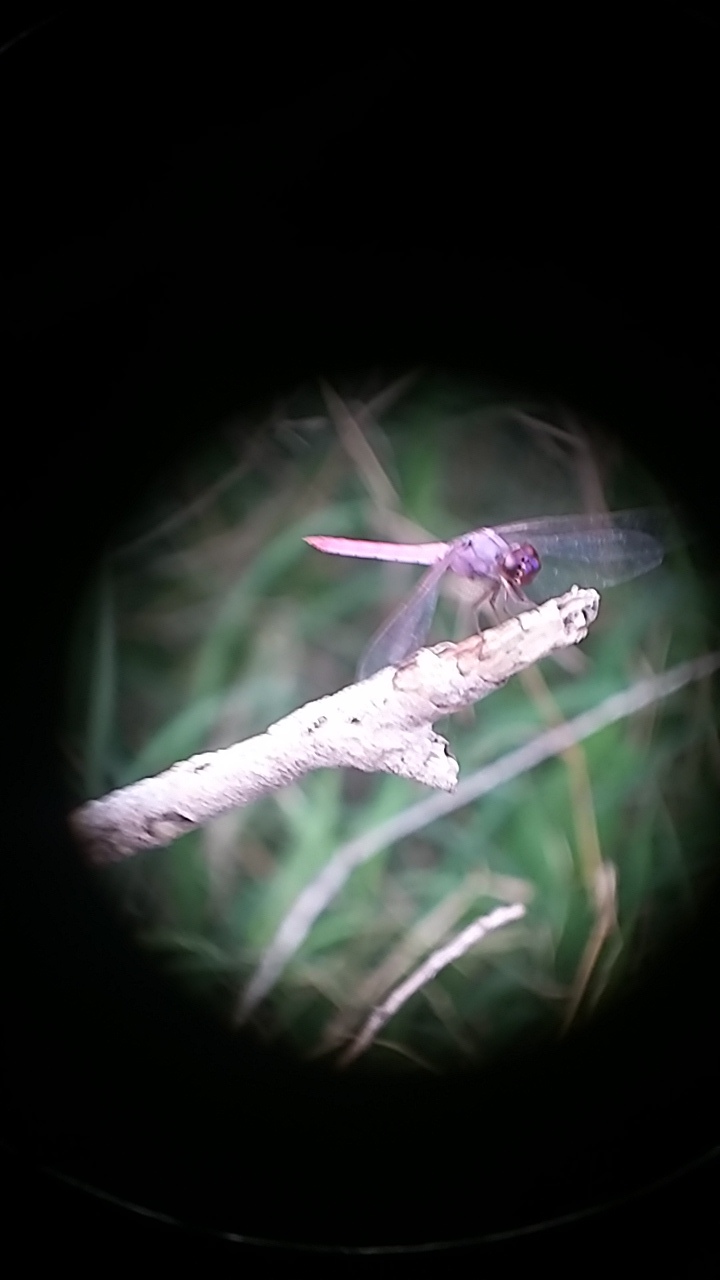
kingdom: Animalia
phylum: Arthropoda
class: Insecta
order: Odonata
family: Libellulidae
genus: Orthemis
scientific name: Orthemis ferruginea
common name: Roseate skimmer
